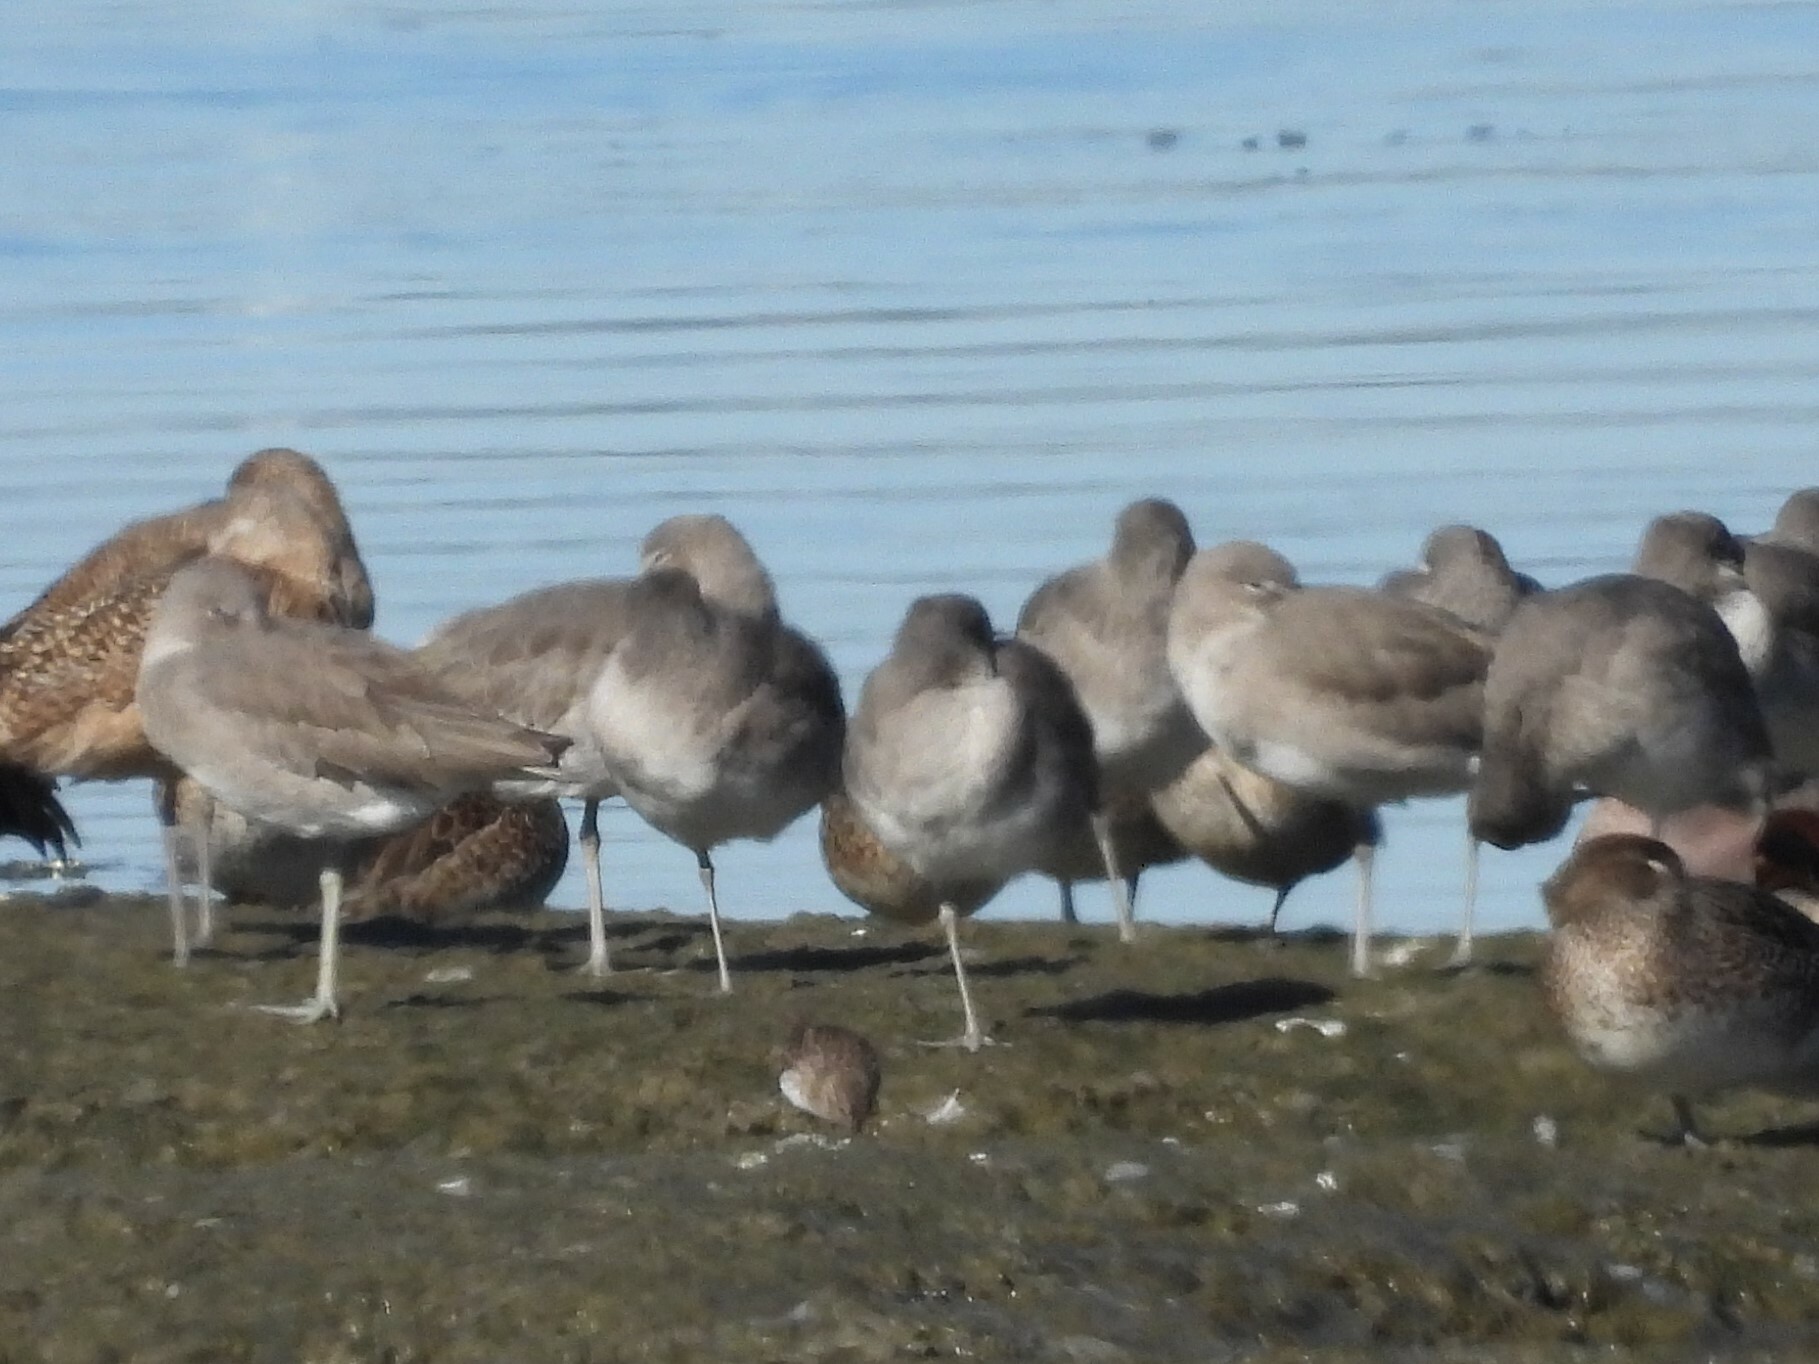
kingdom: Animalia
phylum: Chordata
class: Aves
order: Charadriiformes
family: Scolopacidae
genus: Tringa
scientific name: Tringa semipalmata
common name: Willet
